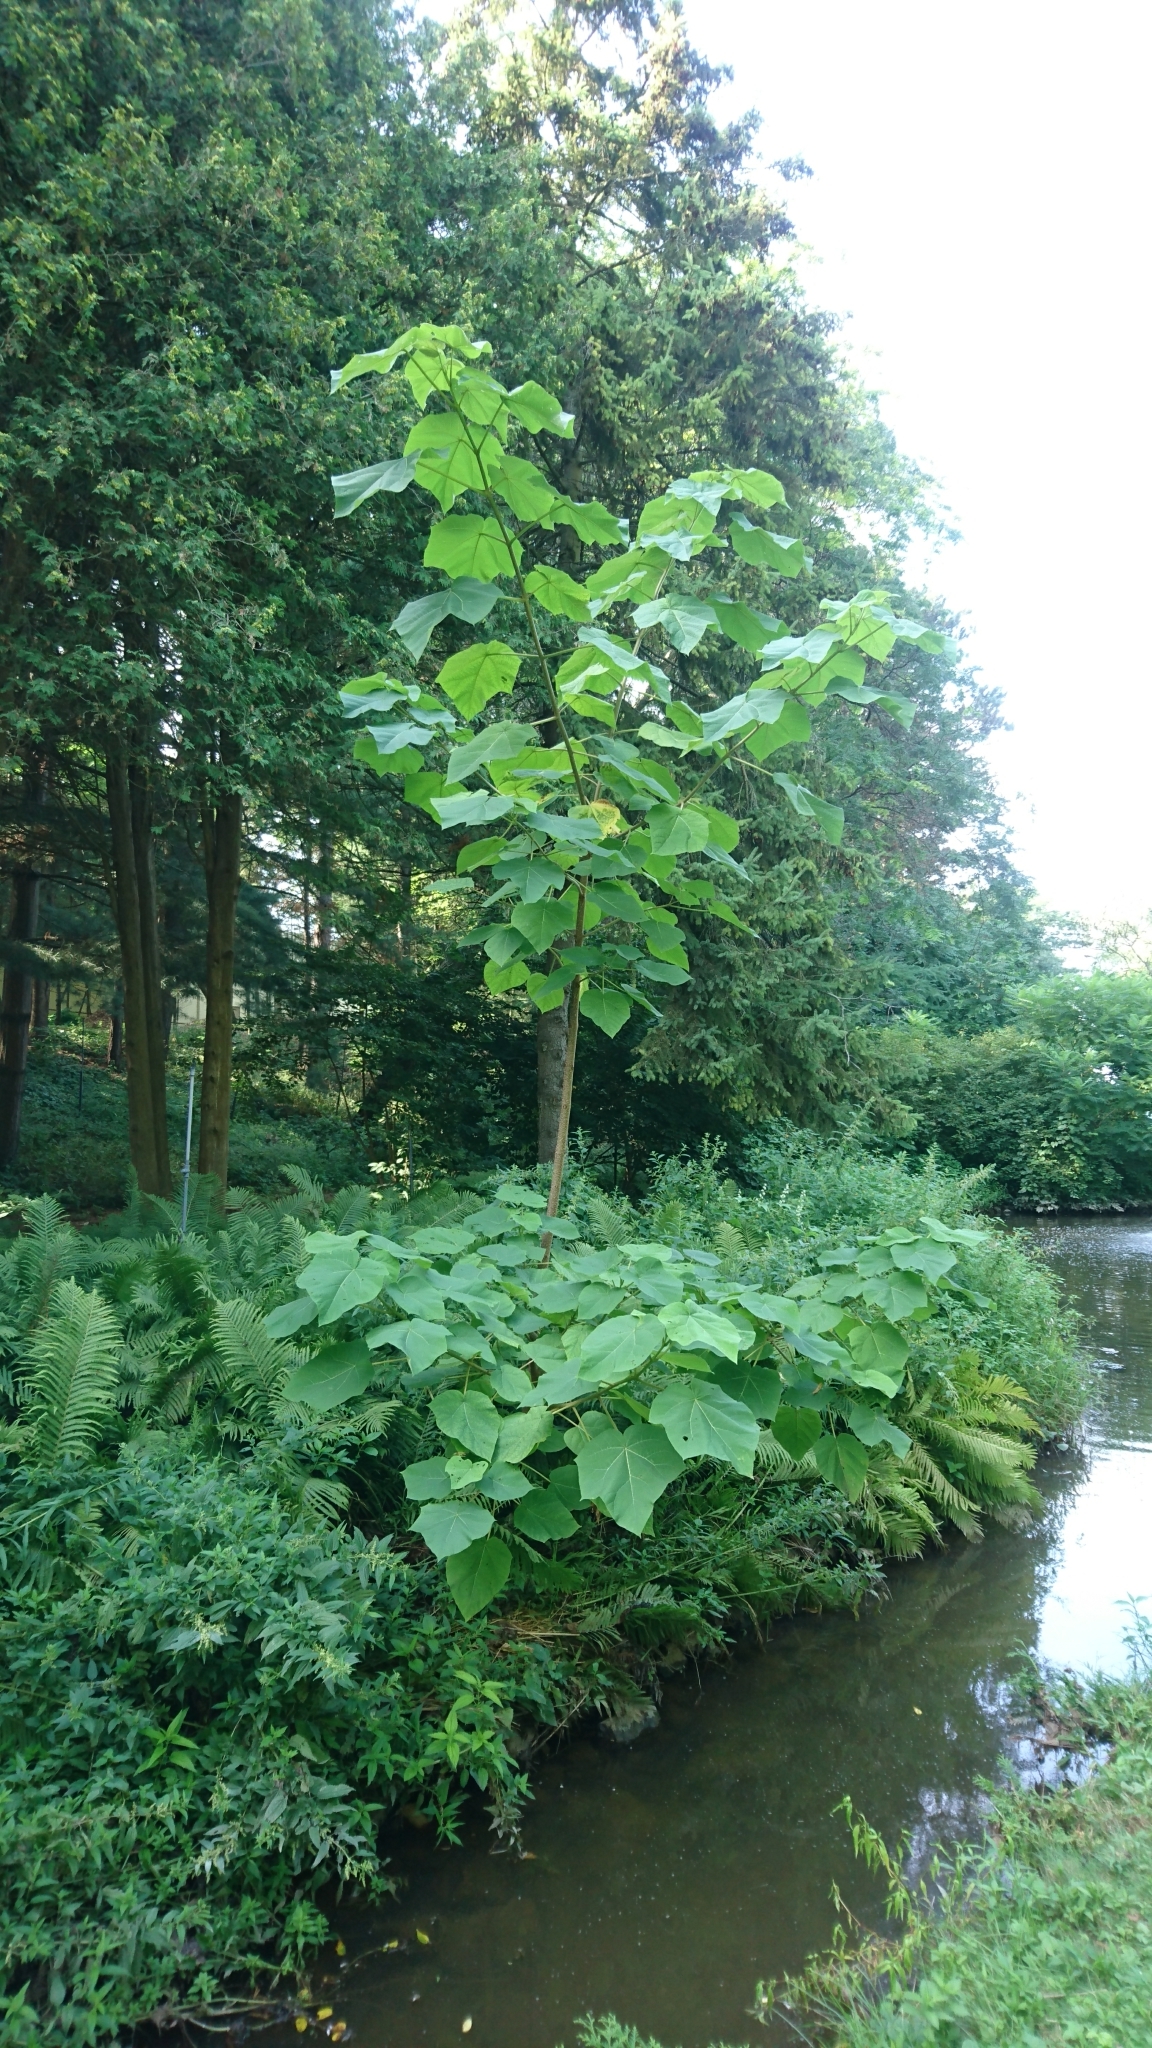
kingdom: Plantae
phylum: Tracheophyta
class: Magnoliopsida
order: Lamiales
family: Paulowniaceae
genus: Paulownia
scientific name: Paulownia tomentosa
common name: Foxglove-tree
